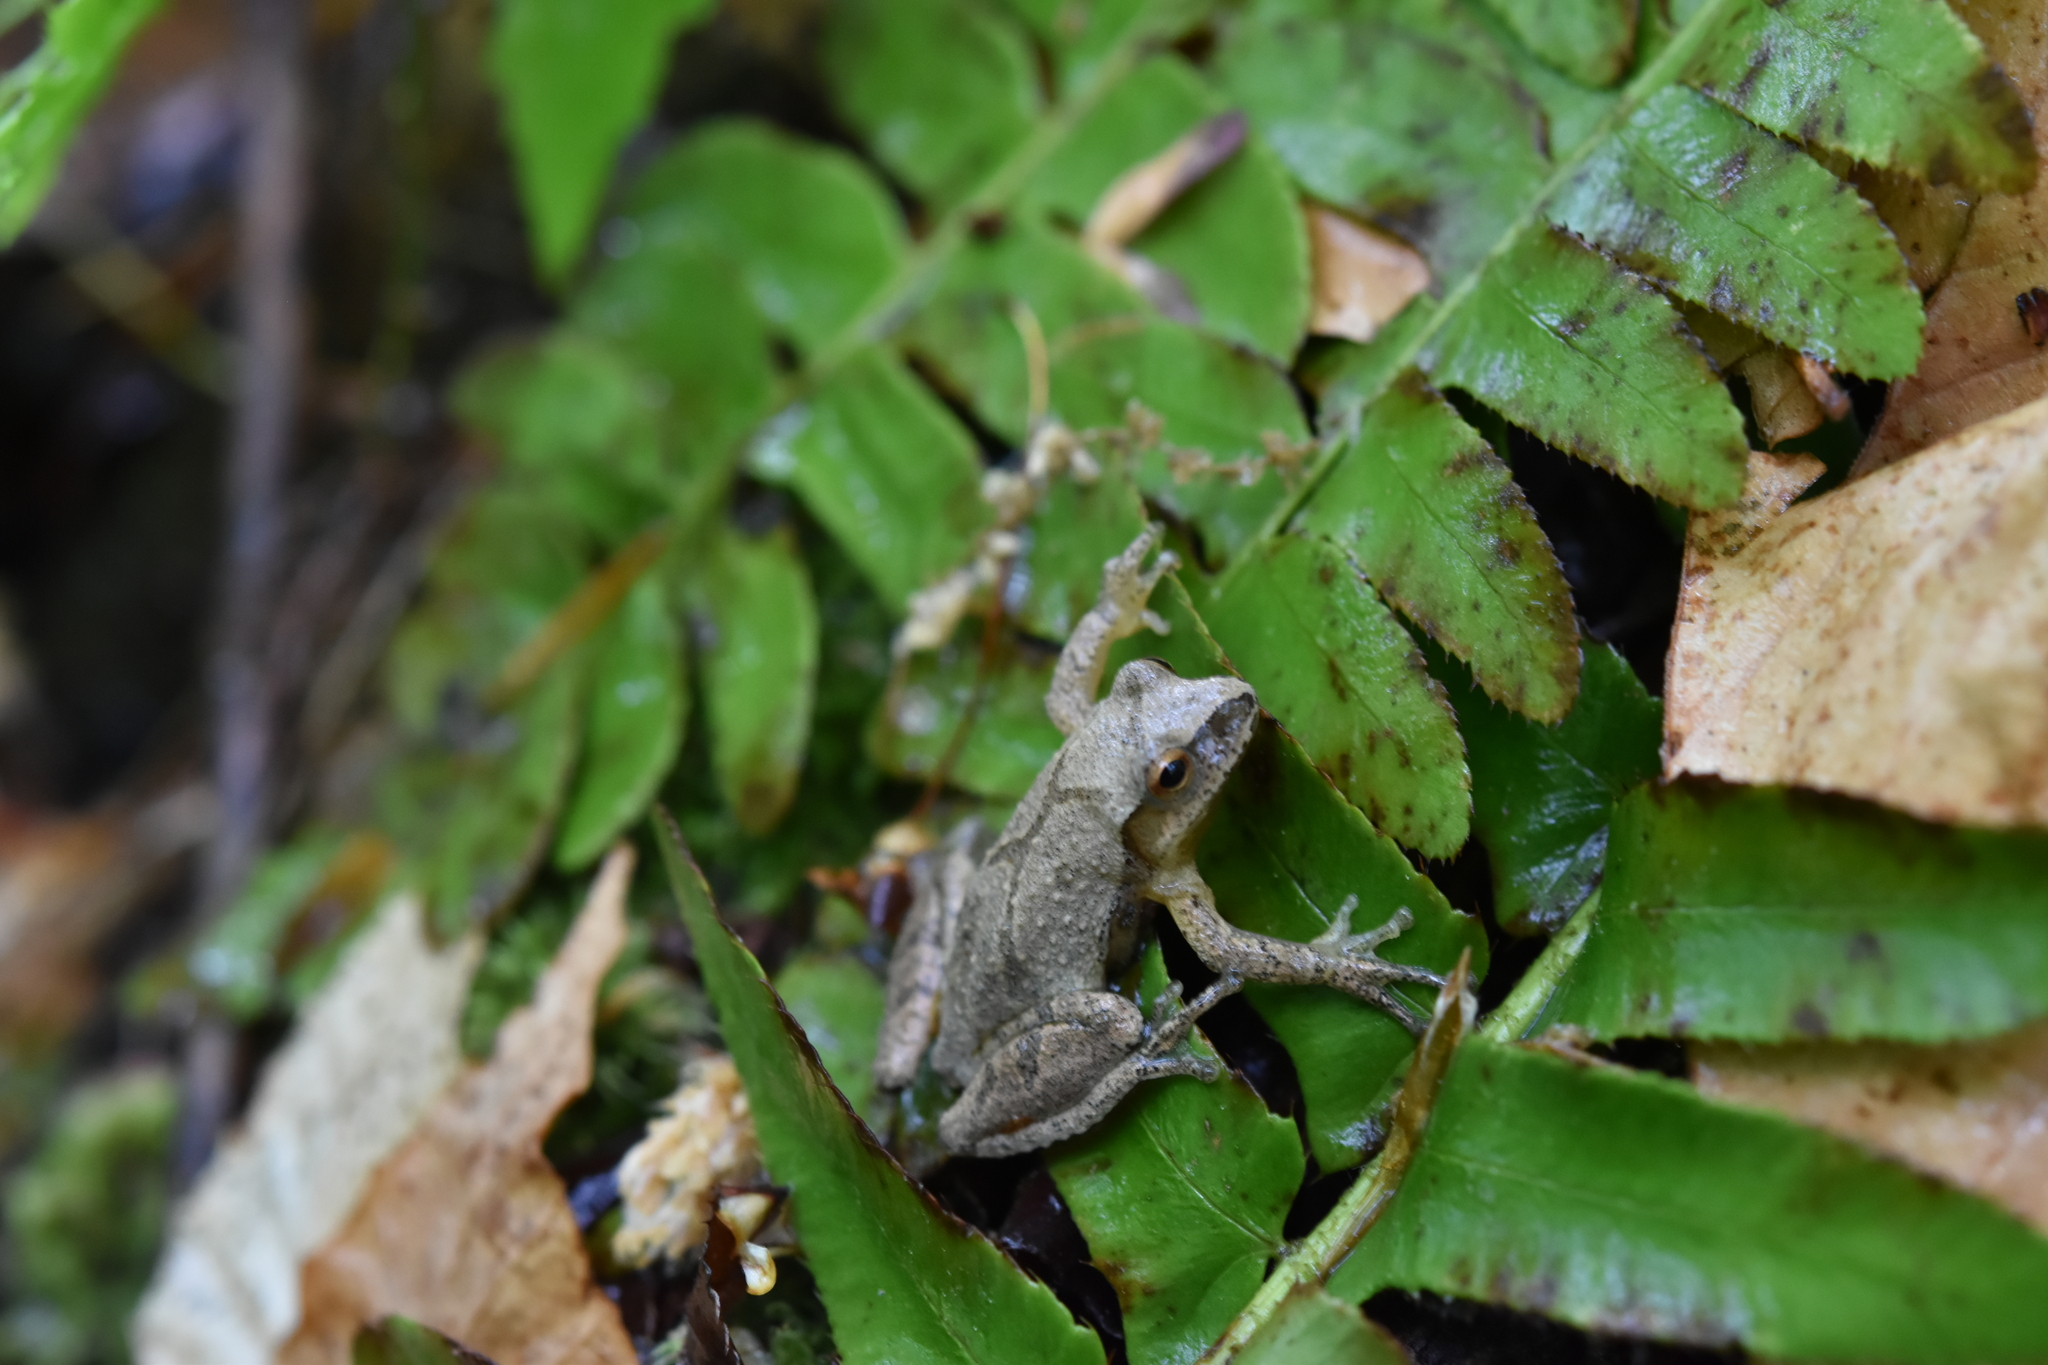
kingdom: Animalia
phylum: Chordata
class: Amphibia
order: Anura
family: Hylidae
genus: Pseudacris
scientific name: Pseudacris crucifer
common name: Spring peeper
